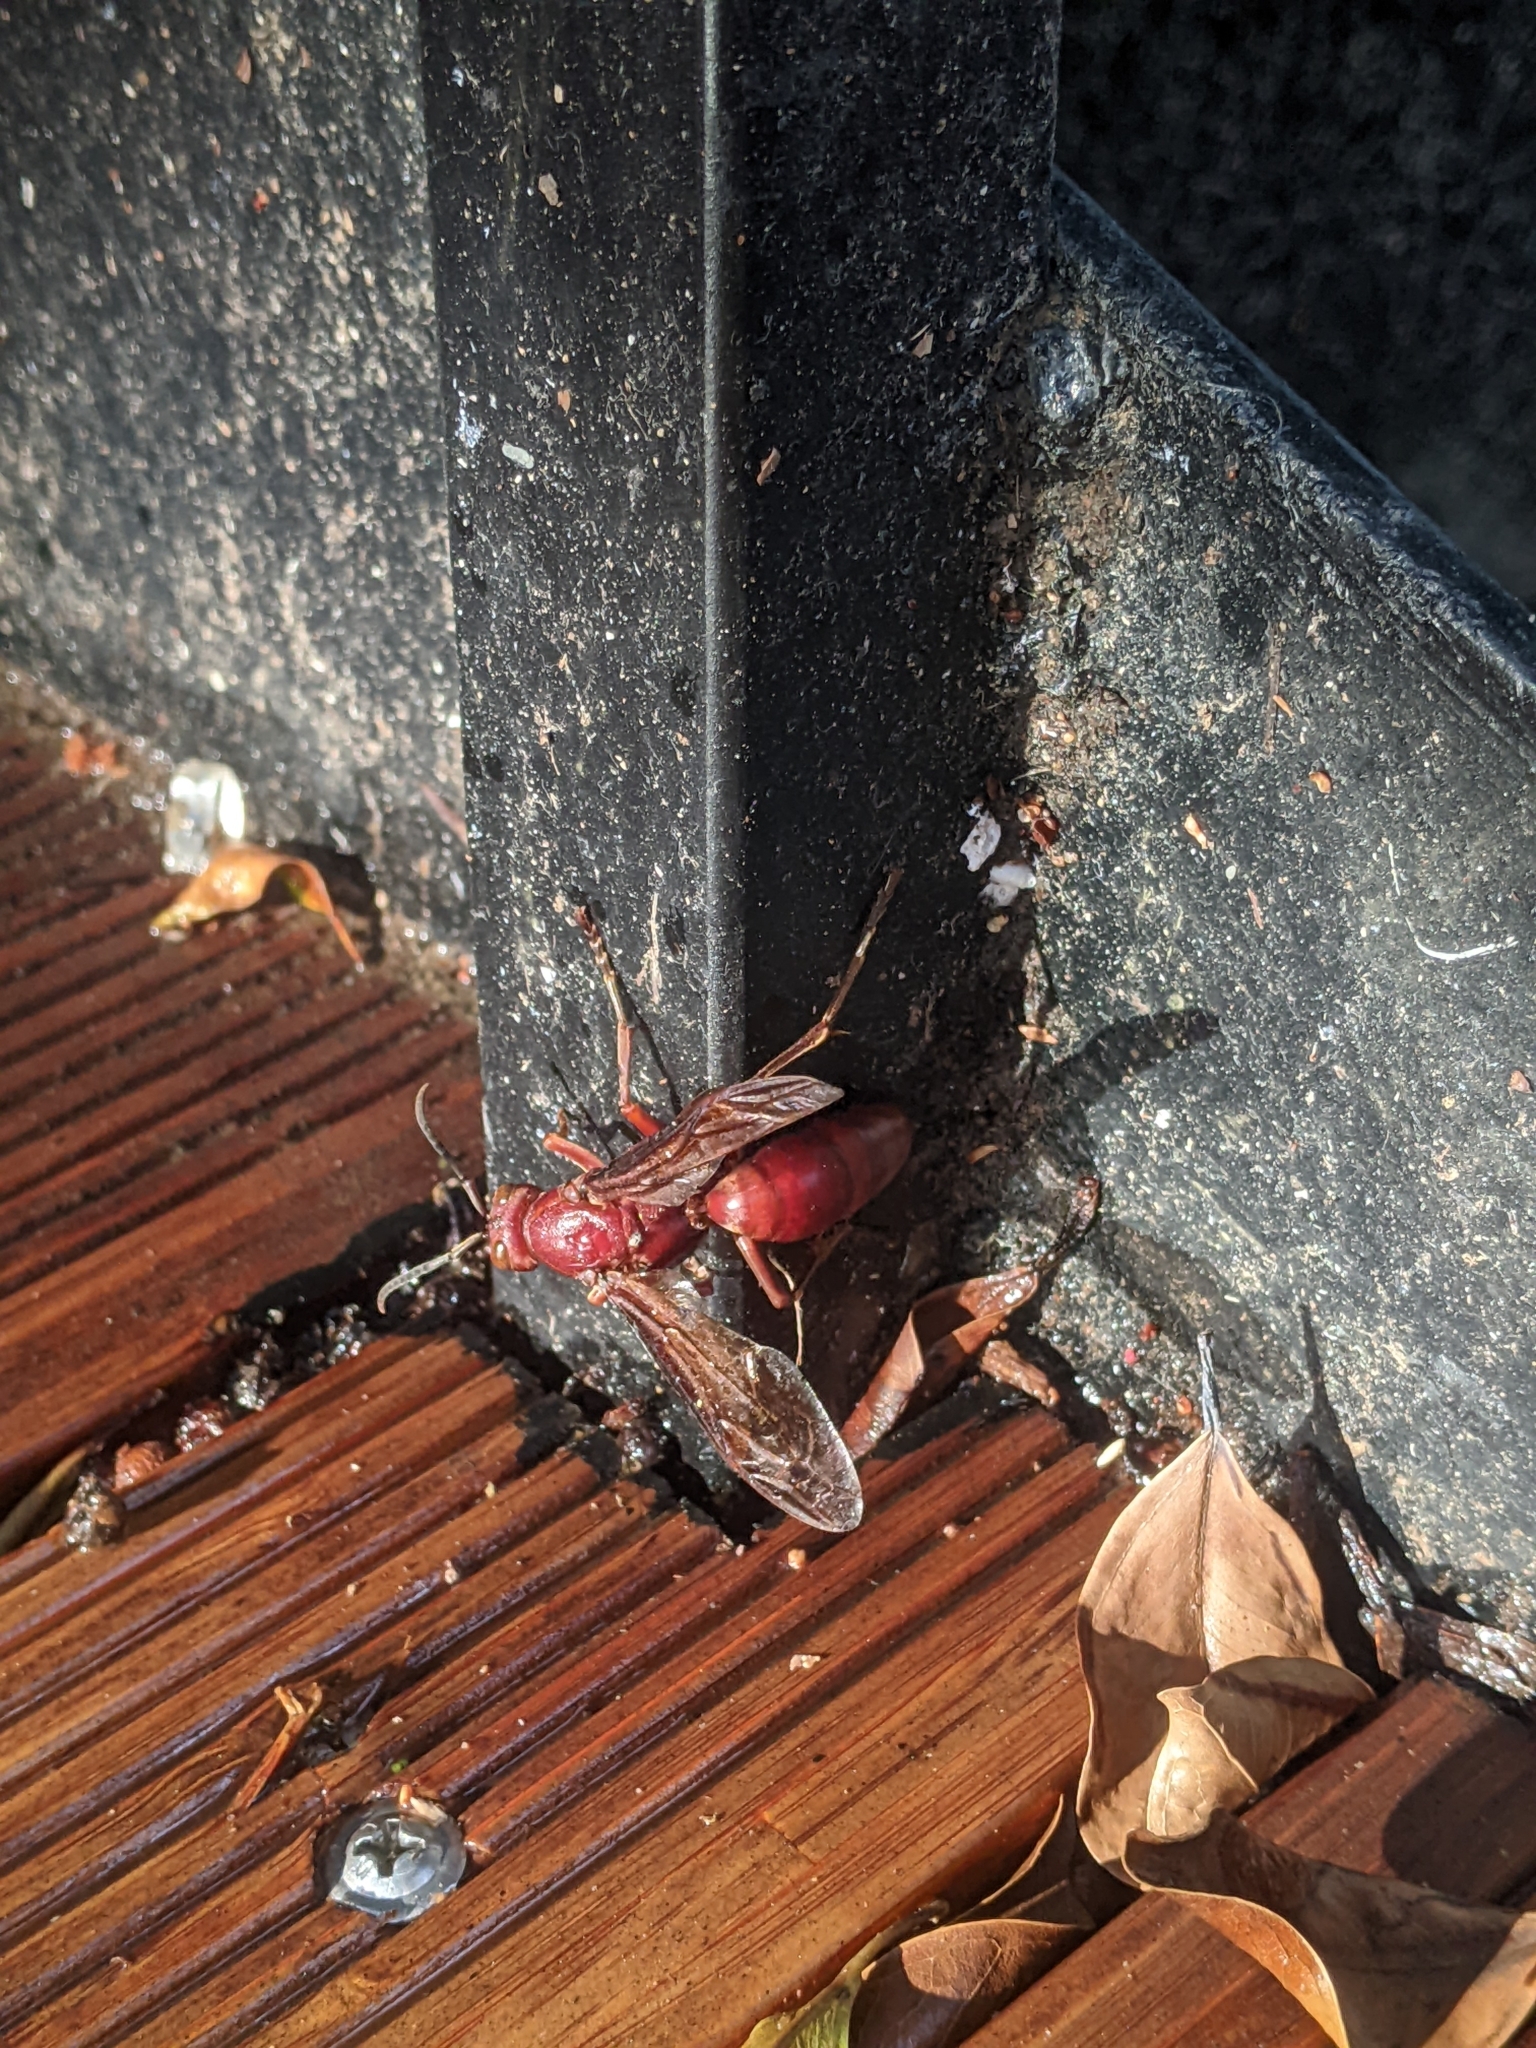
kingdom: Animalia
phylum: Arthropoda
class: Insecta
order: Hymenoptera
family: Eumenidae
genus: Polistes
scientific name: Polistes gigas
